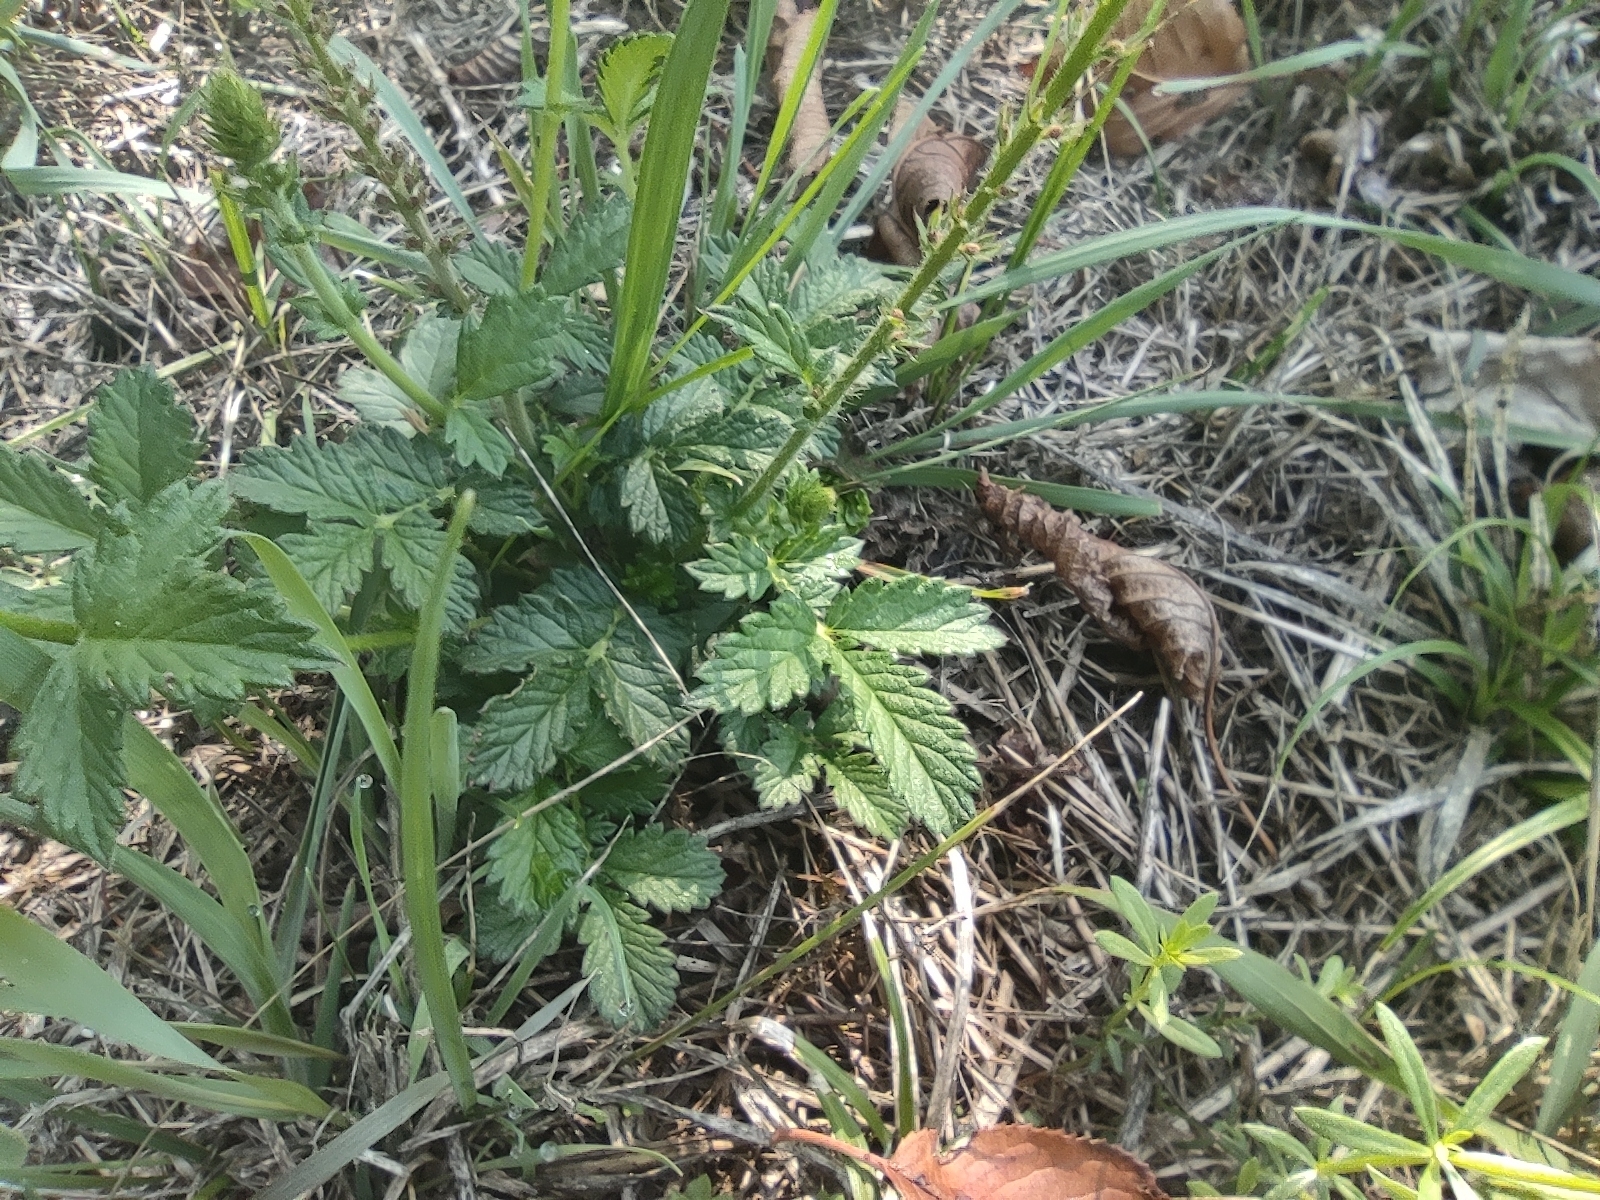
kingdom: Plantae
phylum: Tracheophyta
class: Magnoliopsida
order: Rosales
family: Rosaceae
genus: Agrimonia
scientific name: Agrimonia eupatoria
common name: Agrimony
